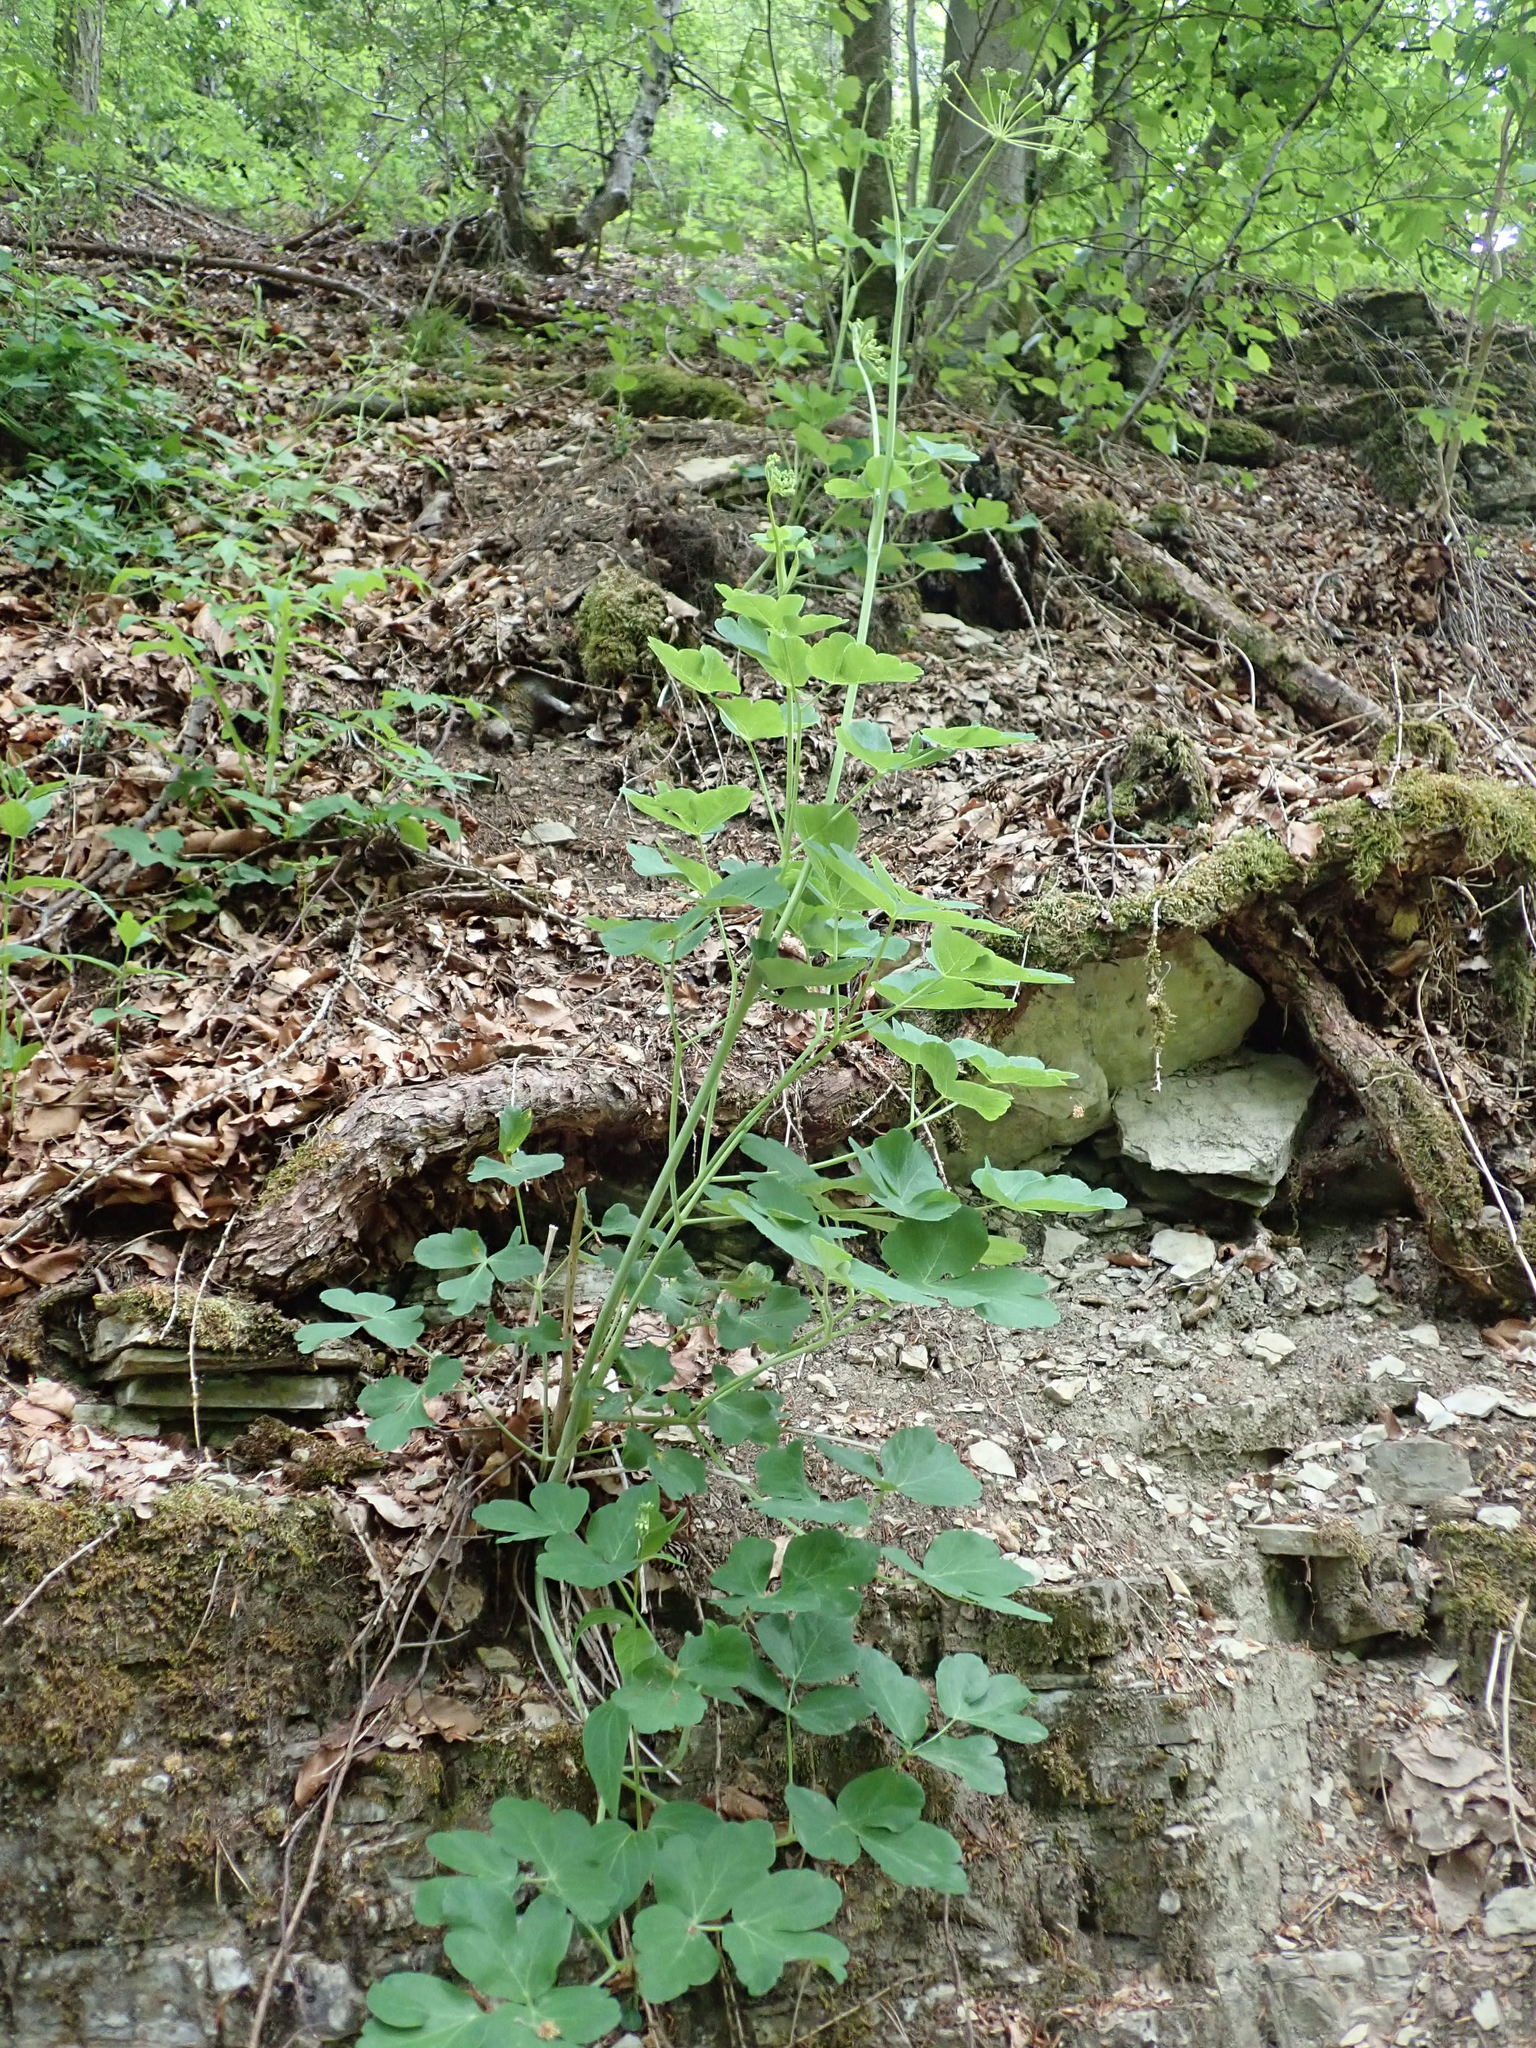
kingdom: Plantae
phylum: Tracheophyta
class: Magnoliopsida
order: Apiales
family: Apiaceae
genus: Laser
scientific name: Laser trilobum
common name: Laser
